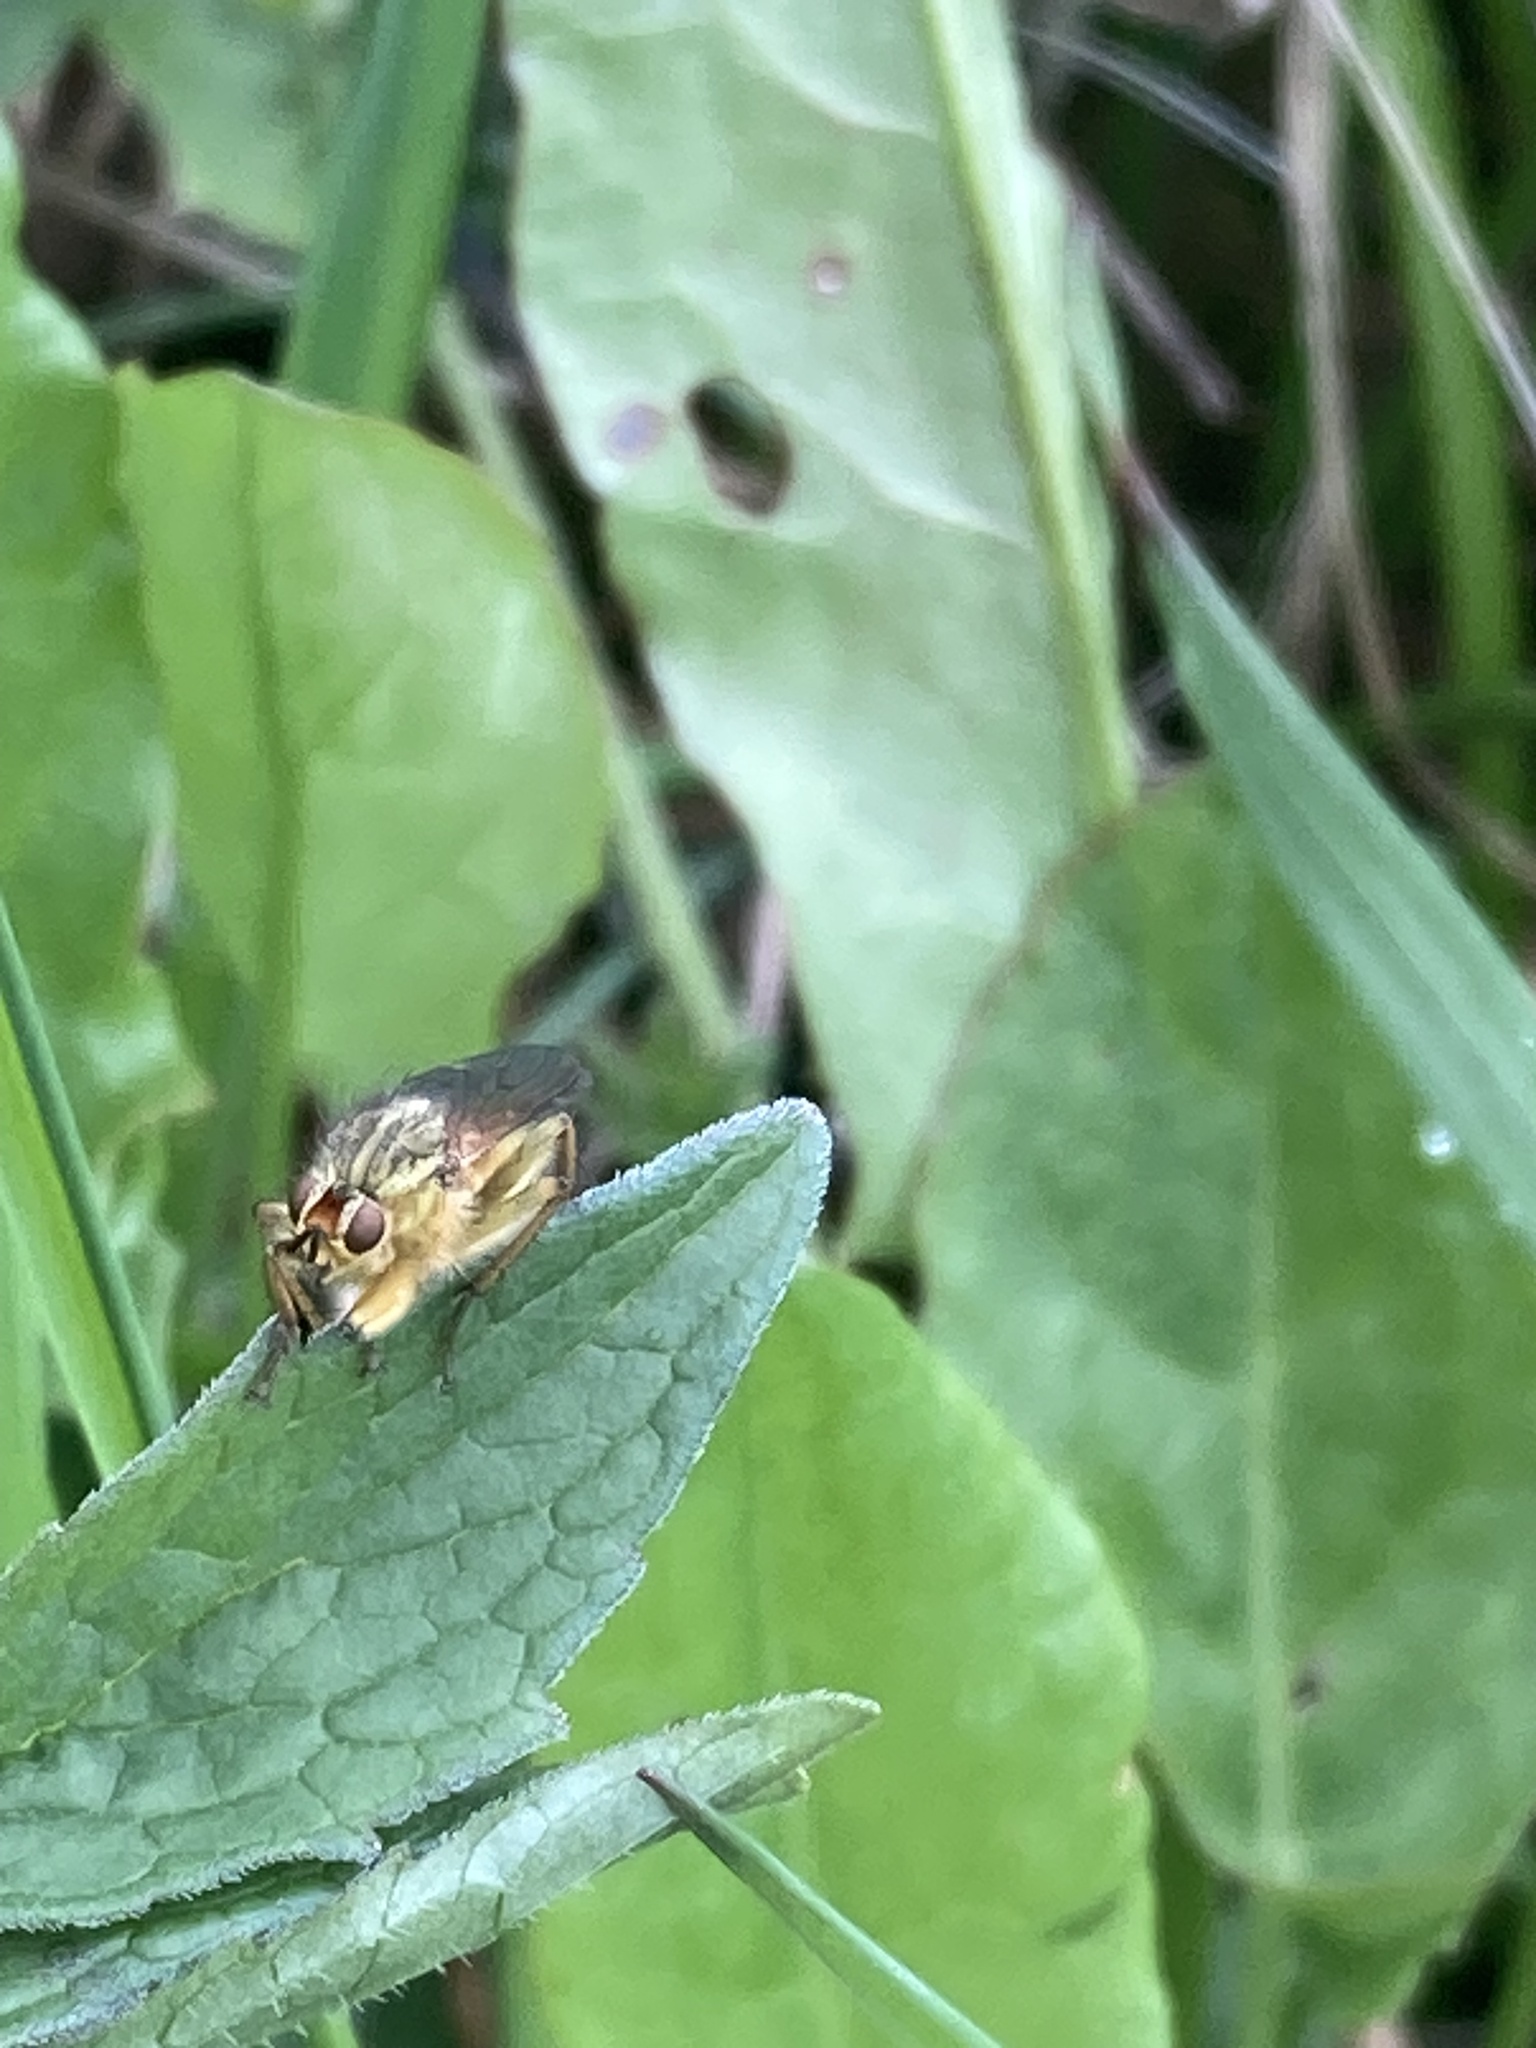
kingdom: Animalia
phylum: Arthropoda
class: Insecta
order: Diptera
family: Scathophagidae
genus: Scathophaga
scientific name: Scathophaga stercoraria
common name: Yellow dung fly
